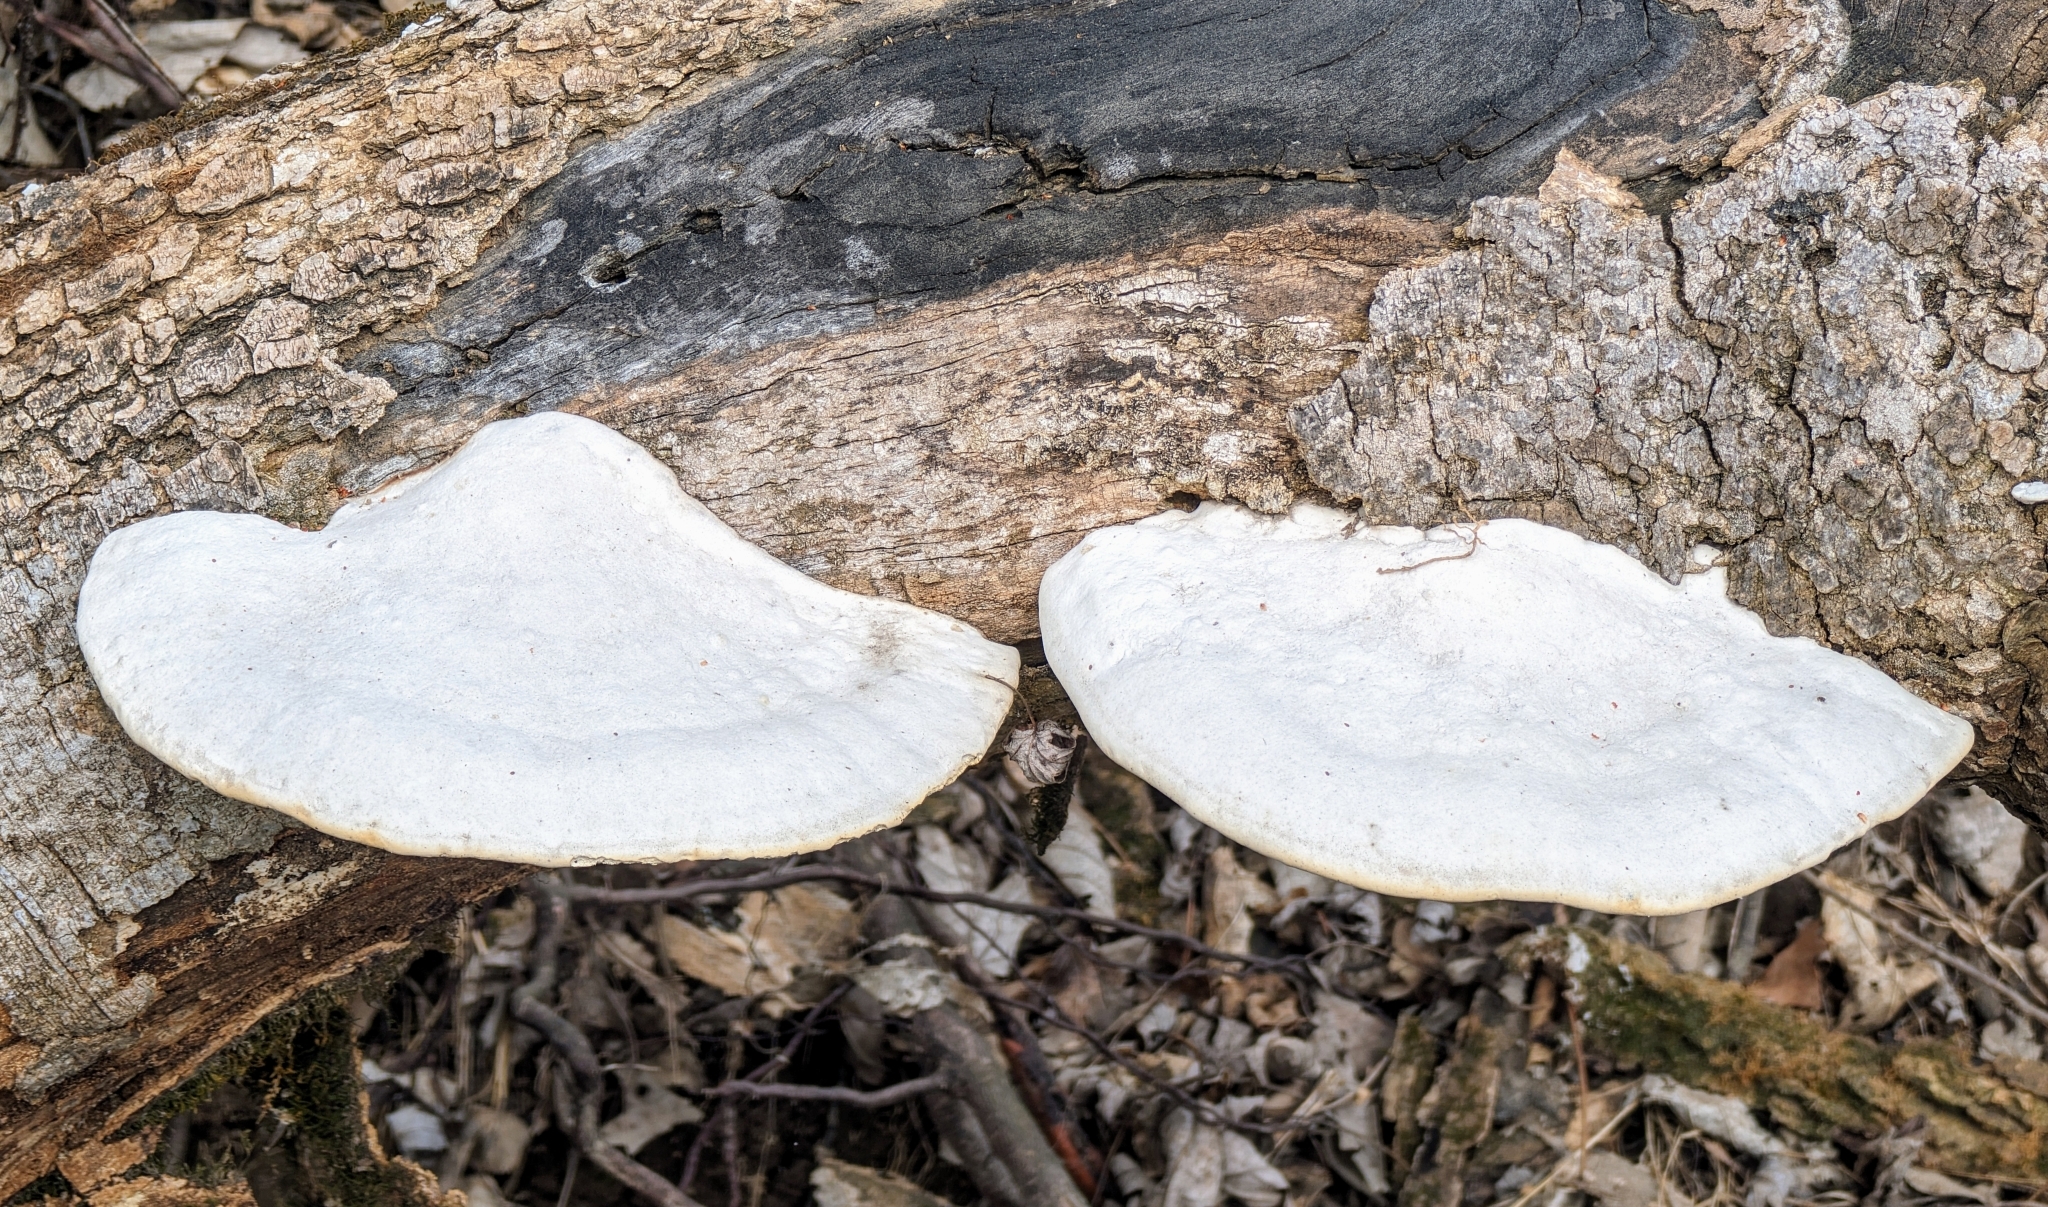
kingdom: Fungi
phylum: Basidiomycota
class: Agaricomycetes
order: Polyporales
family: Polyporaceae
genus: Trametes
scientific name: Trametes
